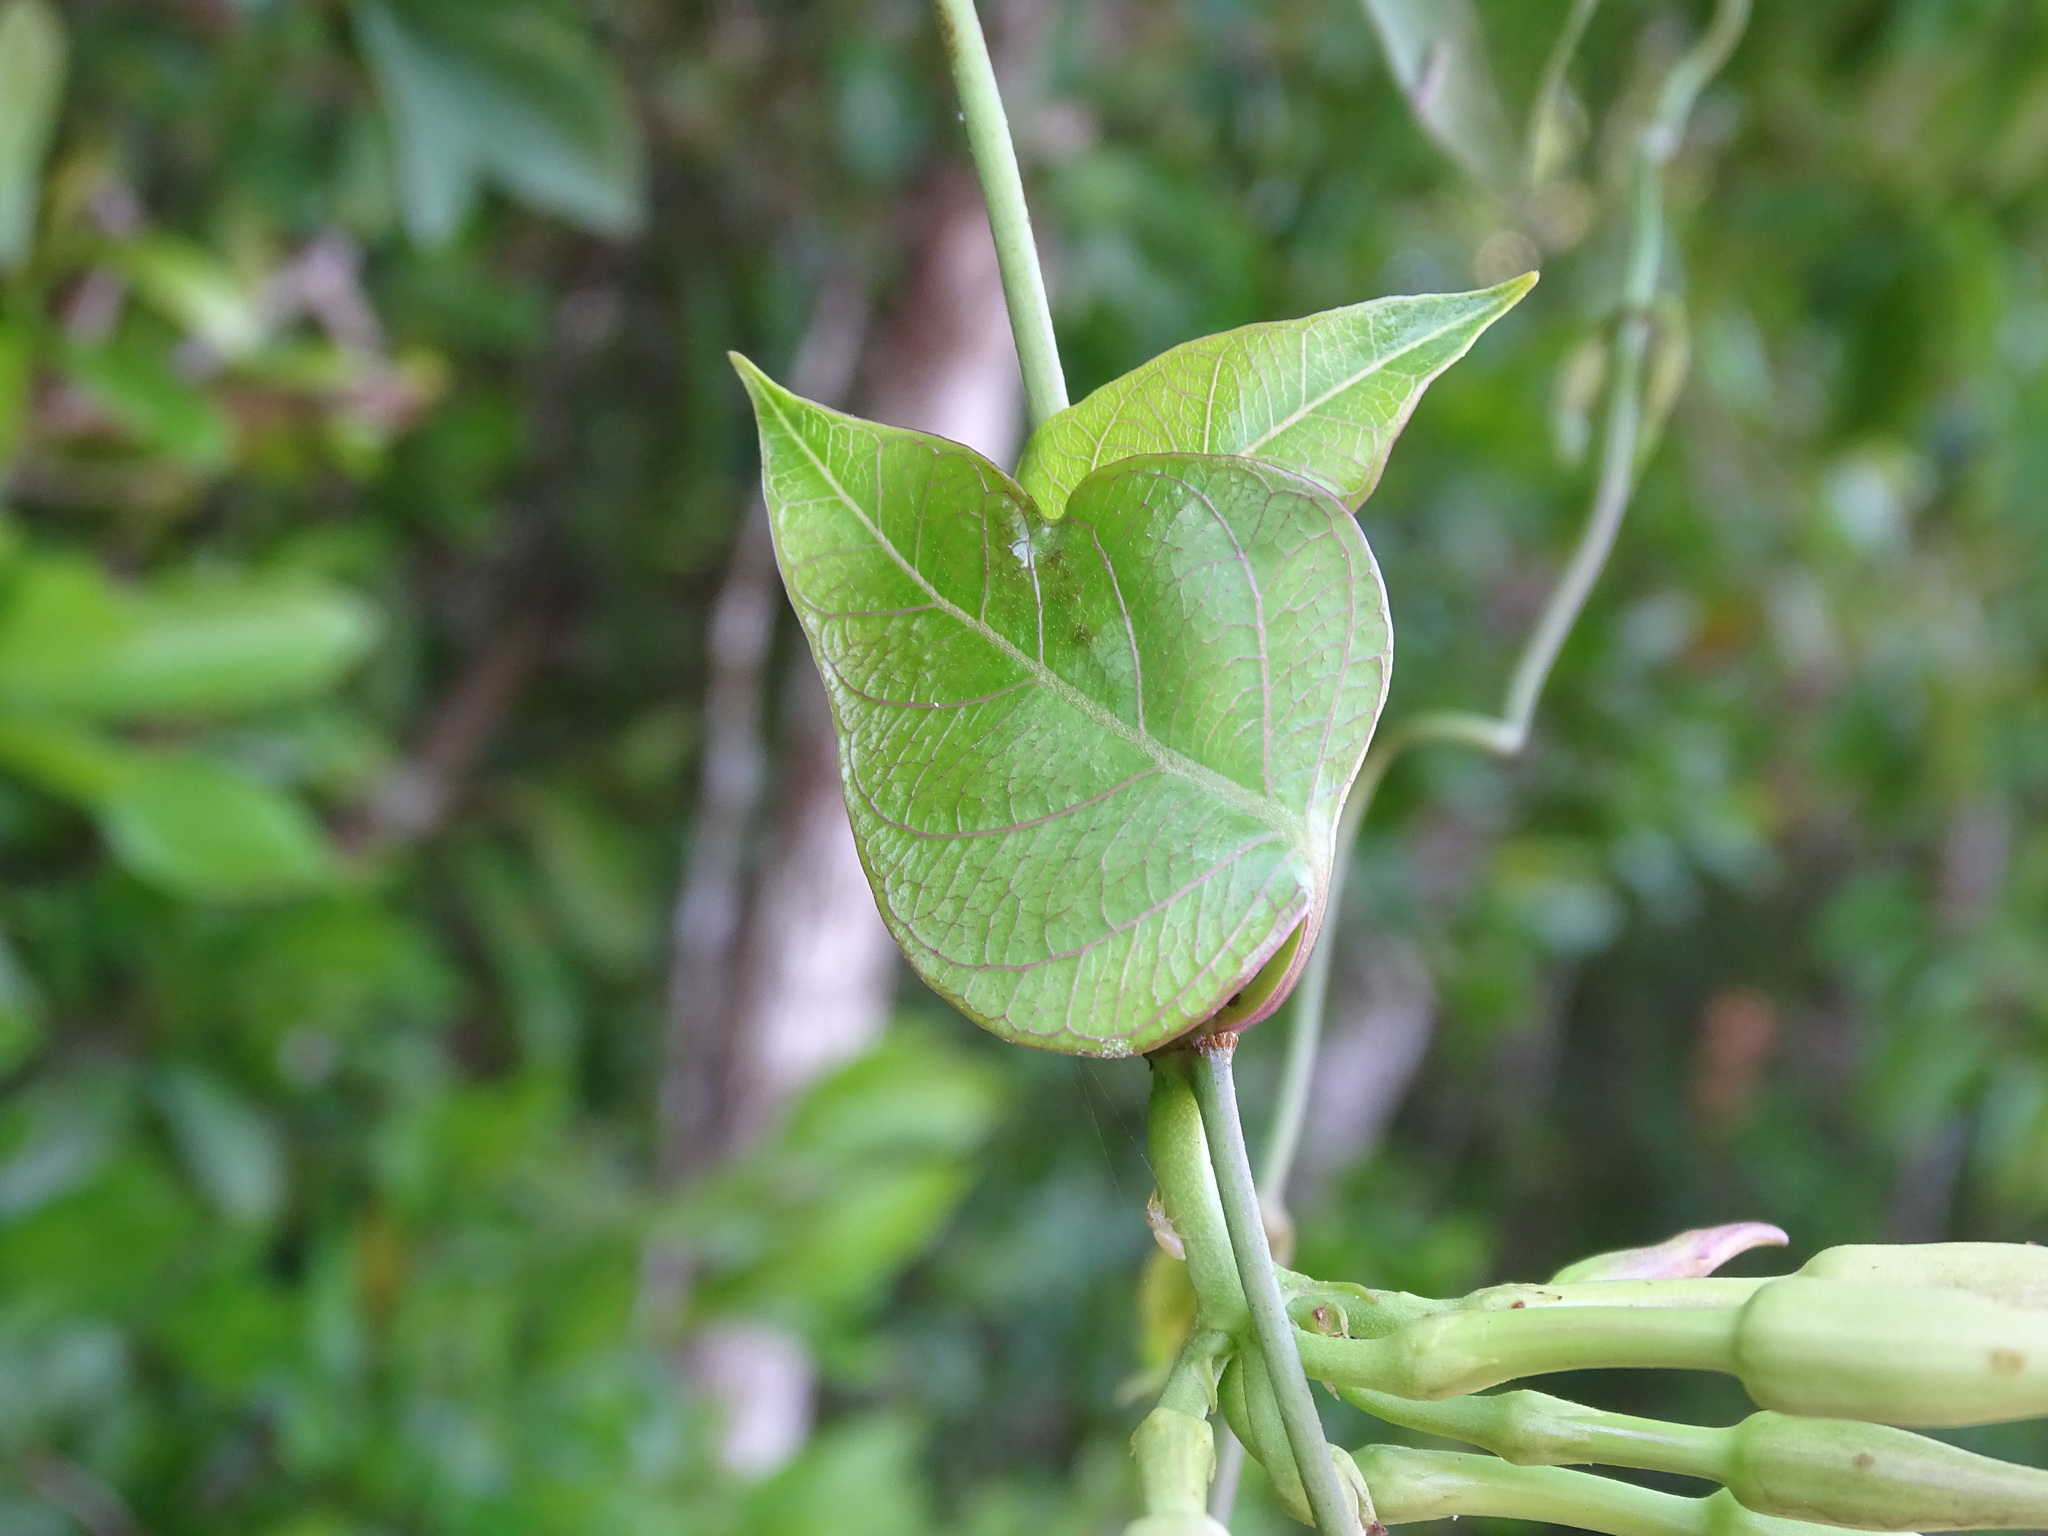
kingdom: Plantae
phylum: Tracheophyta
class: Magnoliopsida
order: Gentianales
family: Apocynaceae
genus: Echites
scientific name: Echites yucatanensis
